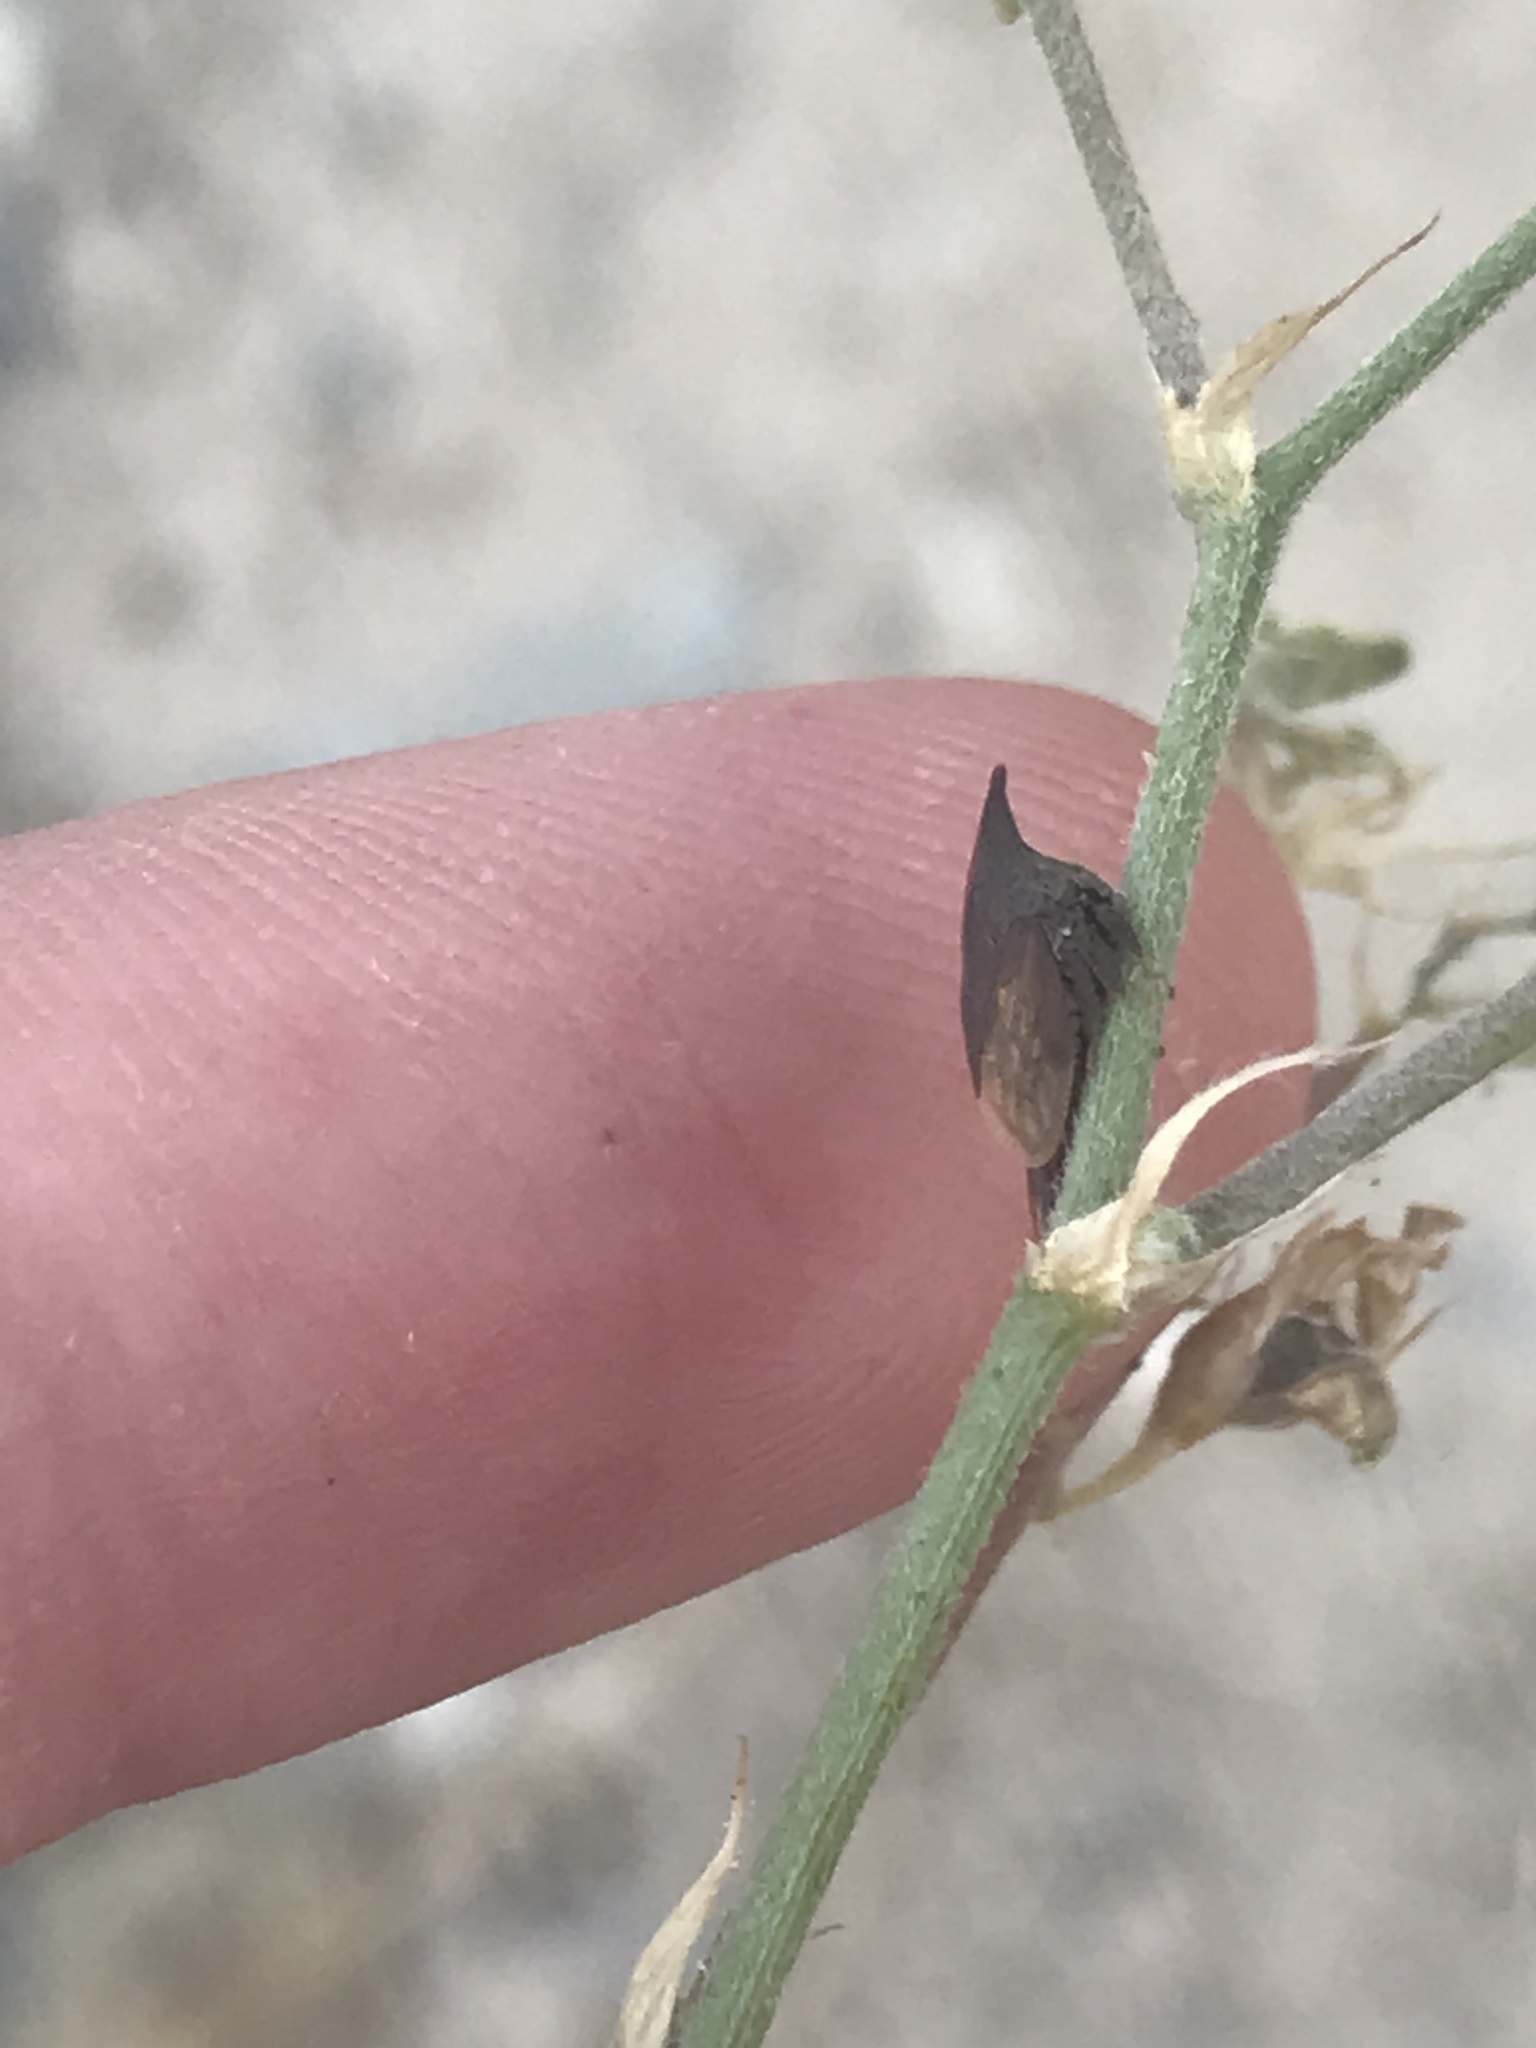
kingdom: Animalia
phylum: Arthropoda
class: Insecta
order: Hemiptera
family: Membracidae
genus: Enchenopa
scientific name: Enchenopa latipes
